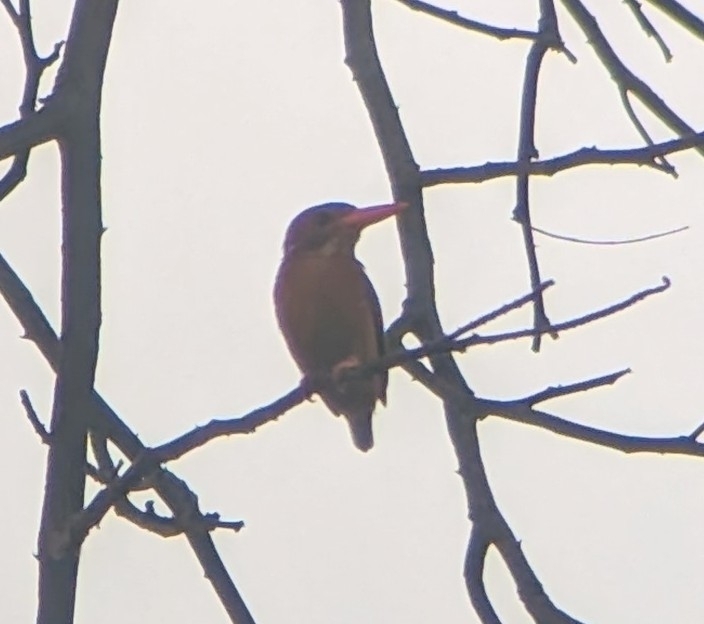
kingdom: Animalia
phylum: Chordata
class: Aves
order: Coraciiformes
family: Alcedinidae
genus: Ispidina
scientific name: Ispidina picta
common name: African pygmy-kingfisher
